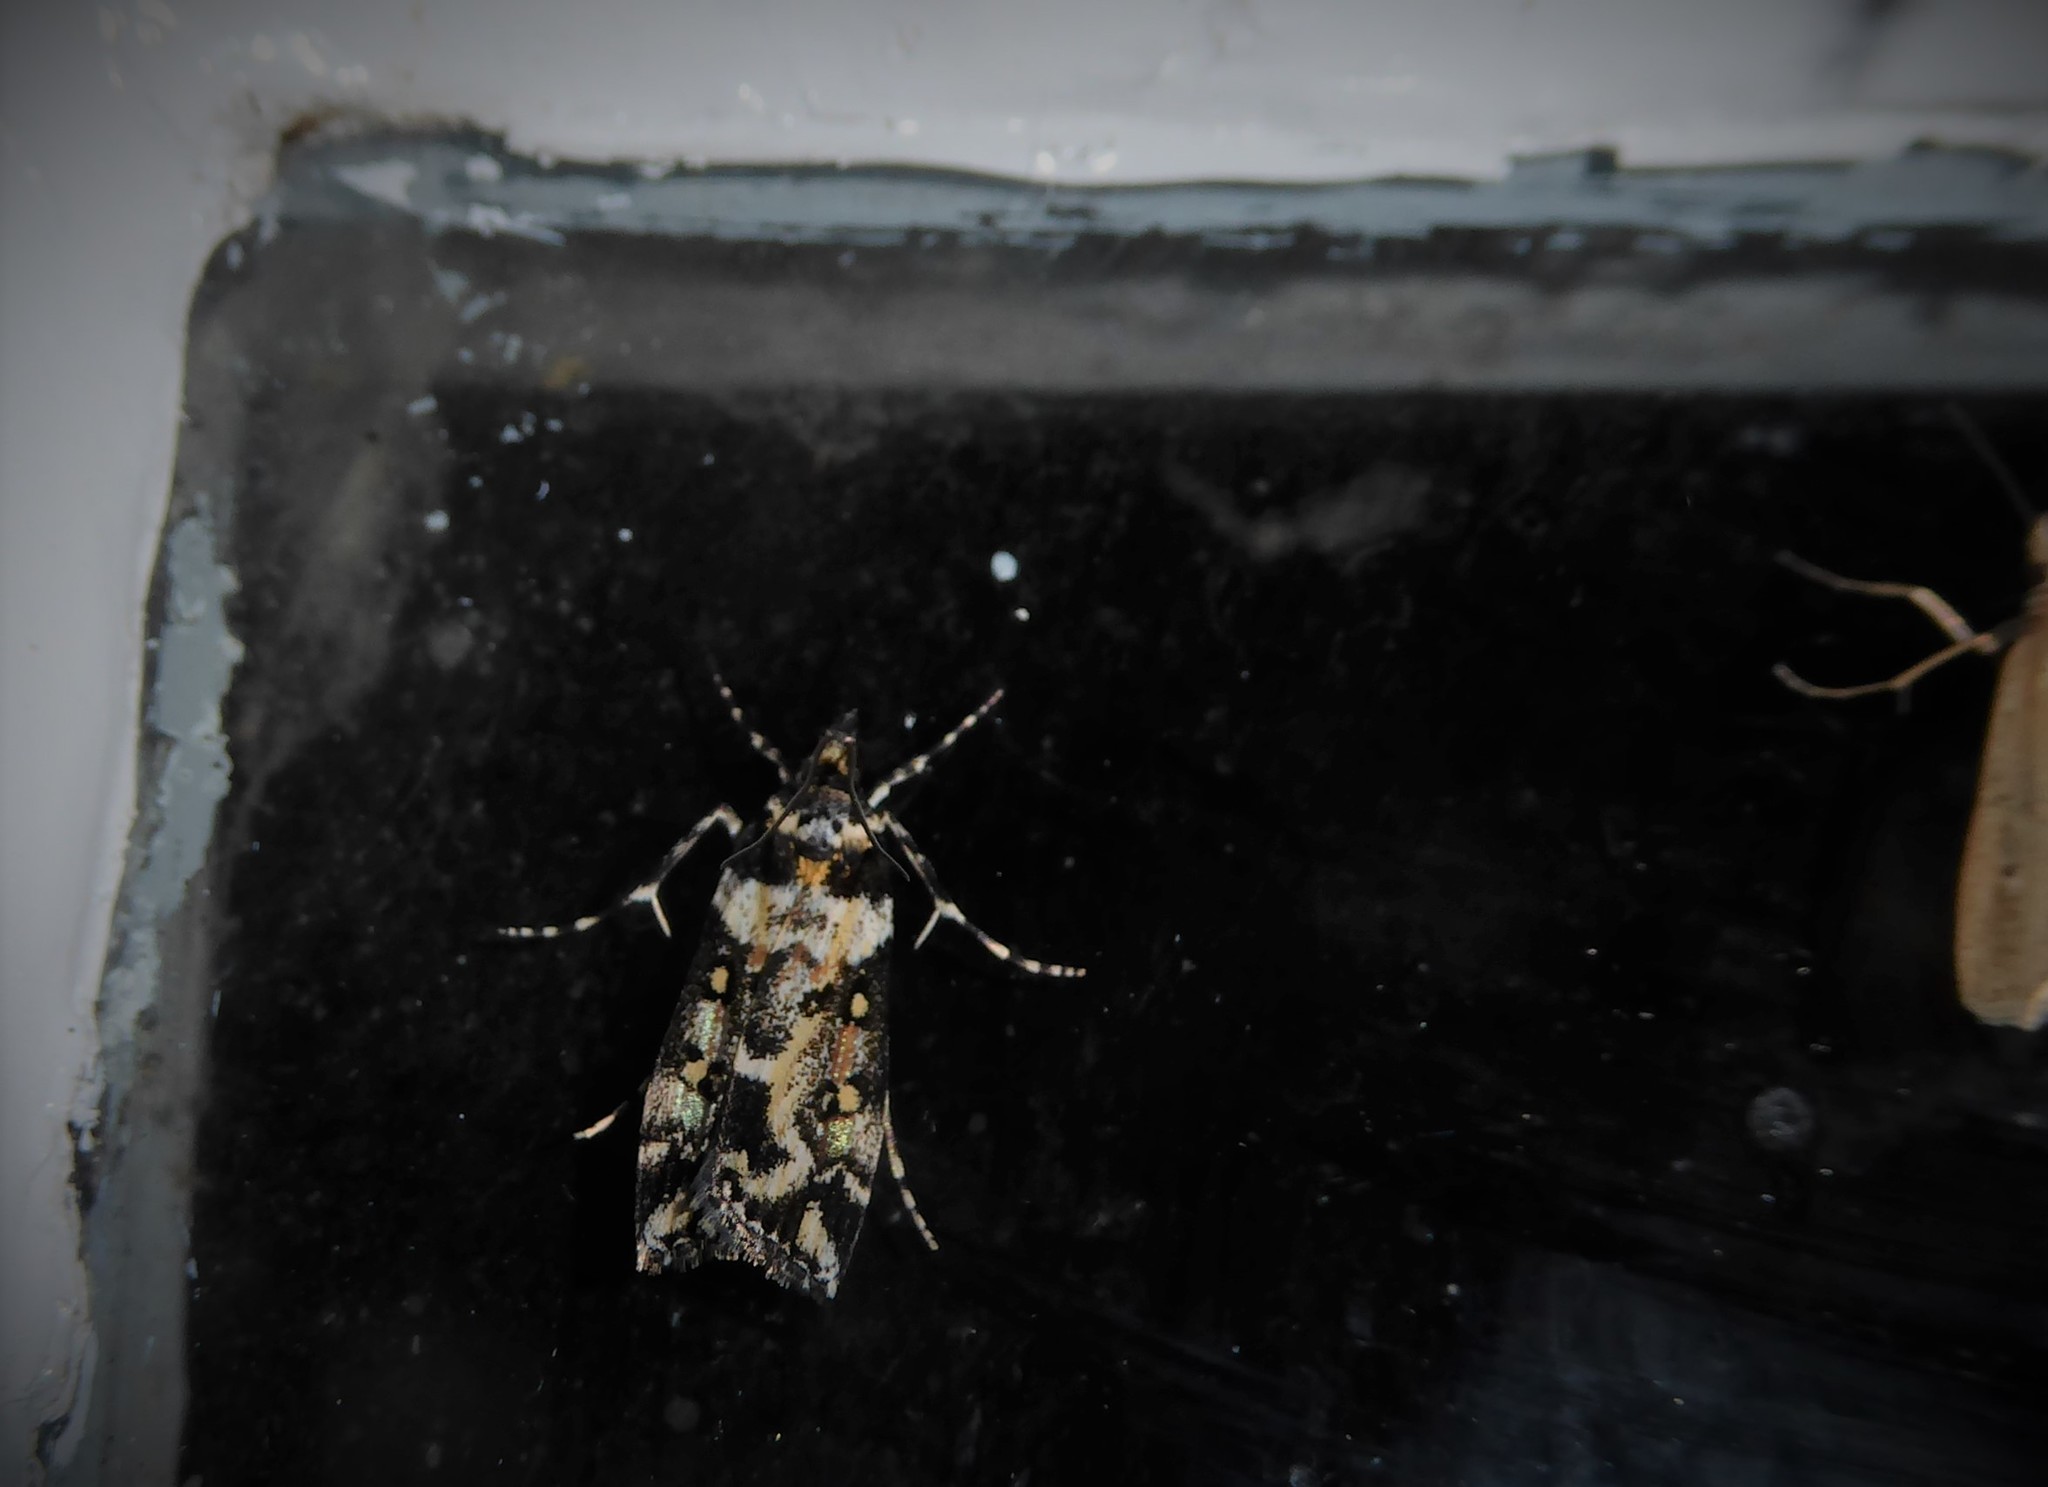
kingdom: Animalia
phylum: Arthropoda
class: Insecta
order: Lepidoptera
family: Crambidae
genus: Eudonia
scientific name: Eudonia diphtheralis
